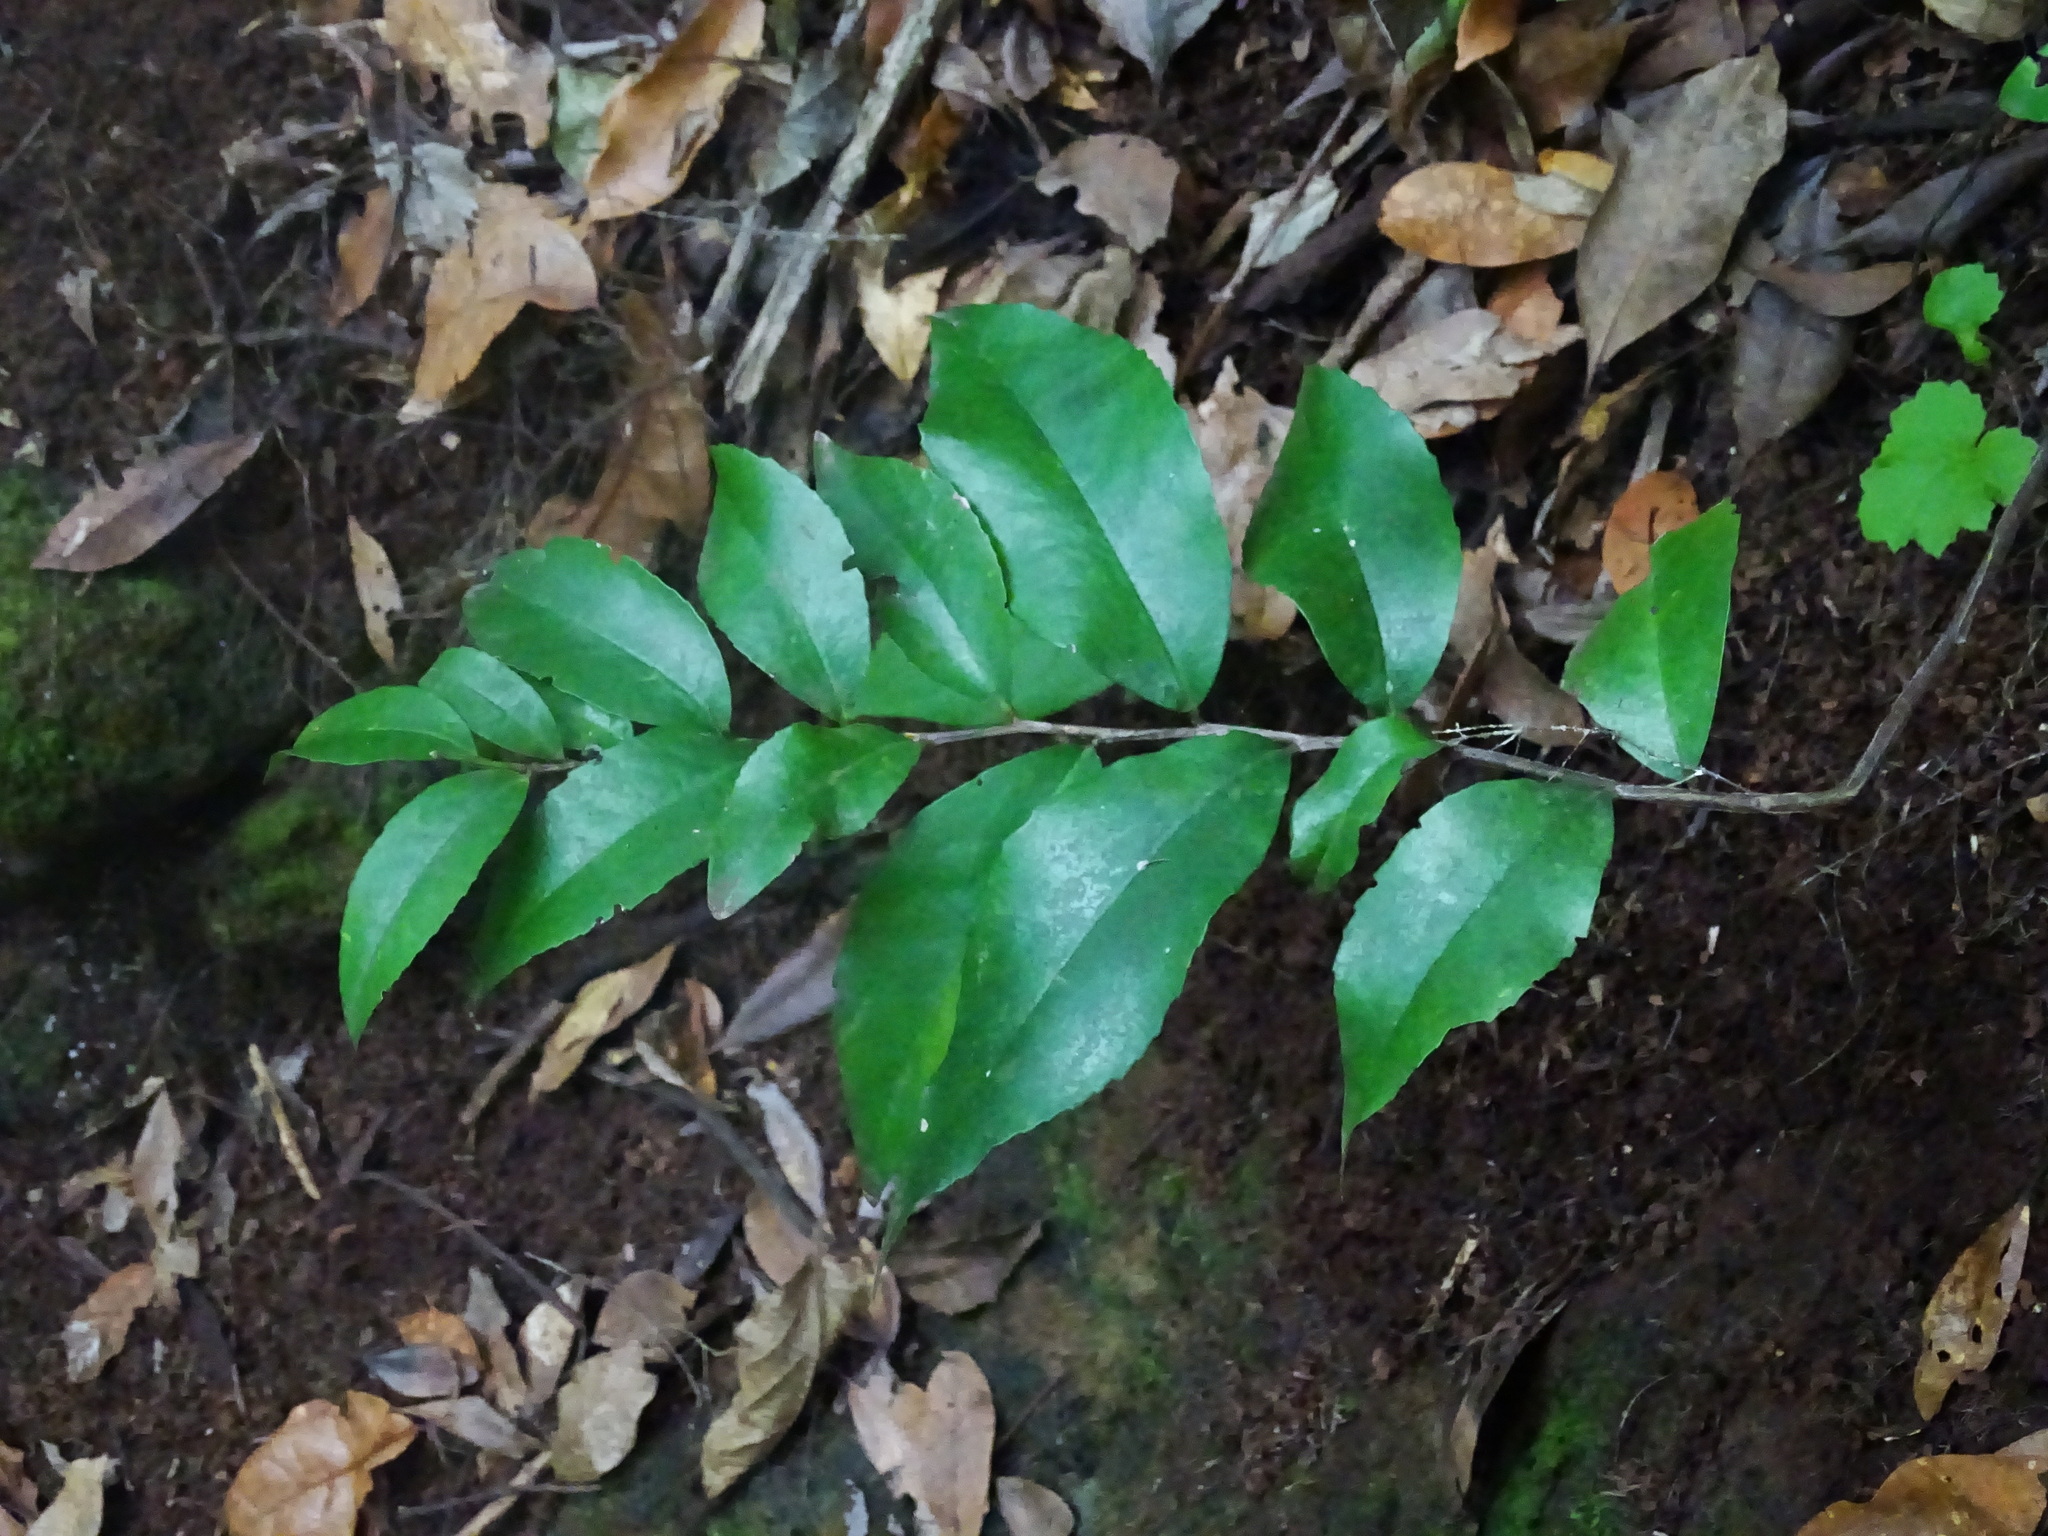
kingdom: Plantae
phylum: Tracheophyta
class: Magnoliopsida
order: Ericales
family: Pentaphylacaceae
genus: Visnea
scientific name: Visnea mocanera
